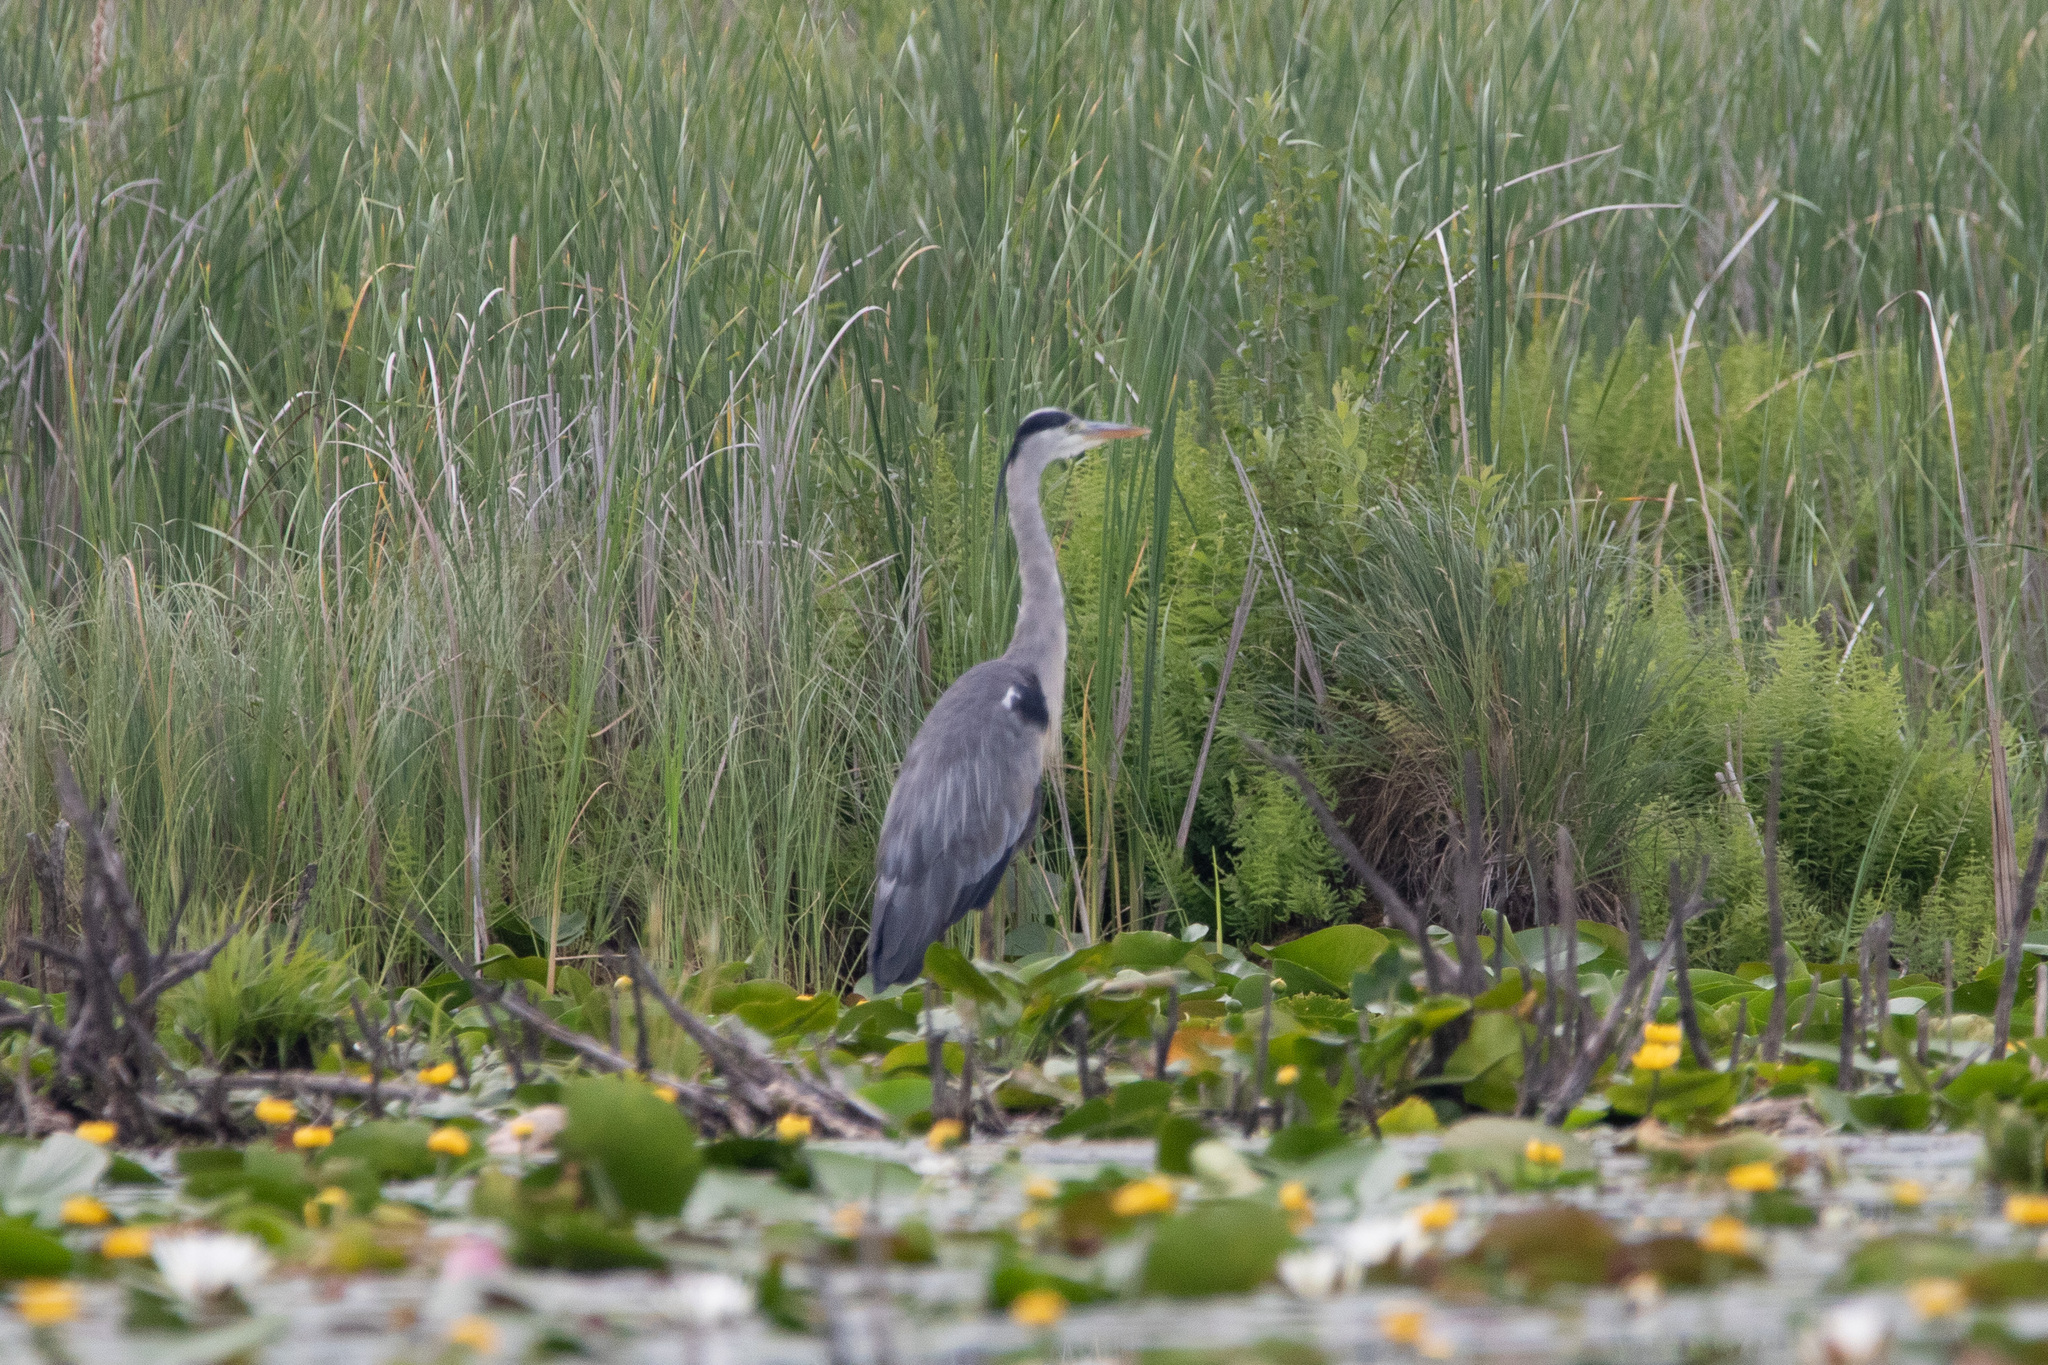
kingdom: Animalia
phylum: Chordata
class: Aves
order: Pelecaniformes
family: Ardeidae
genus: Ardea
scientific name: Ardea cinerea
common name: Grey heron
